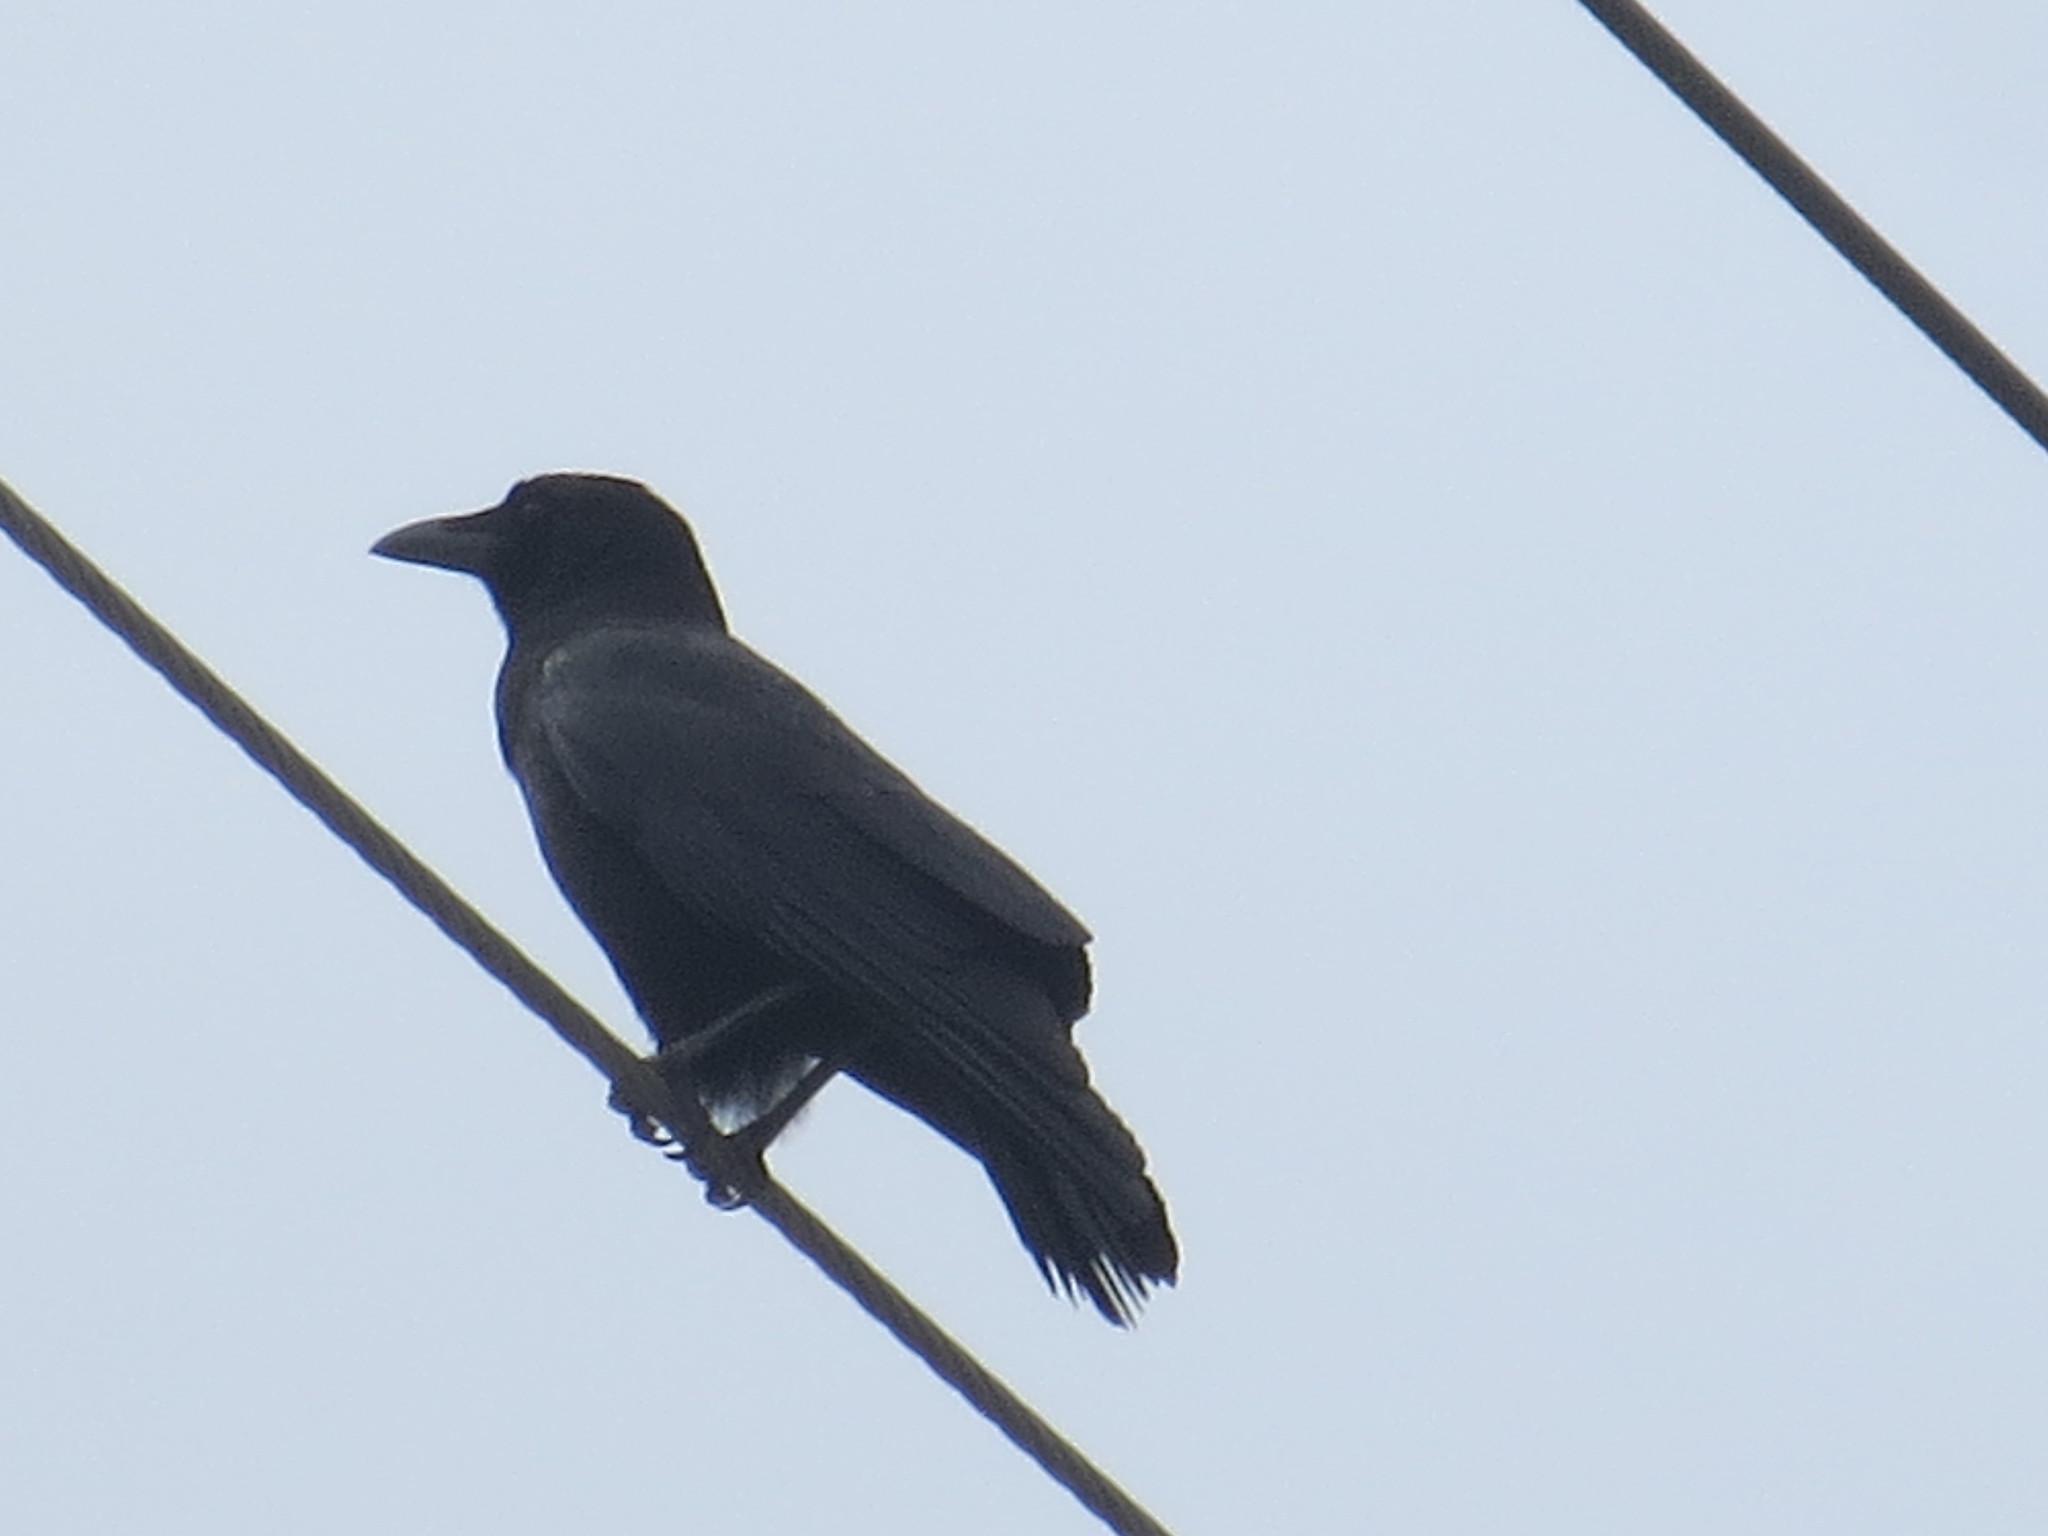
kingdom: Animalia
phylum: Chordata
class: Aves
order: Passeriformes
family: Corvidae
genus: Corvus
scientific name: Corvus brachyrhynchos
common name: American crow
